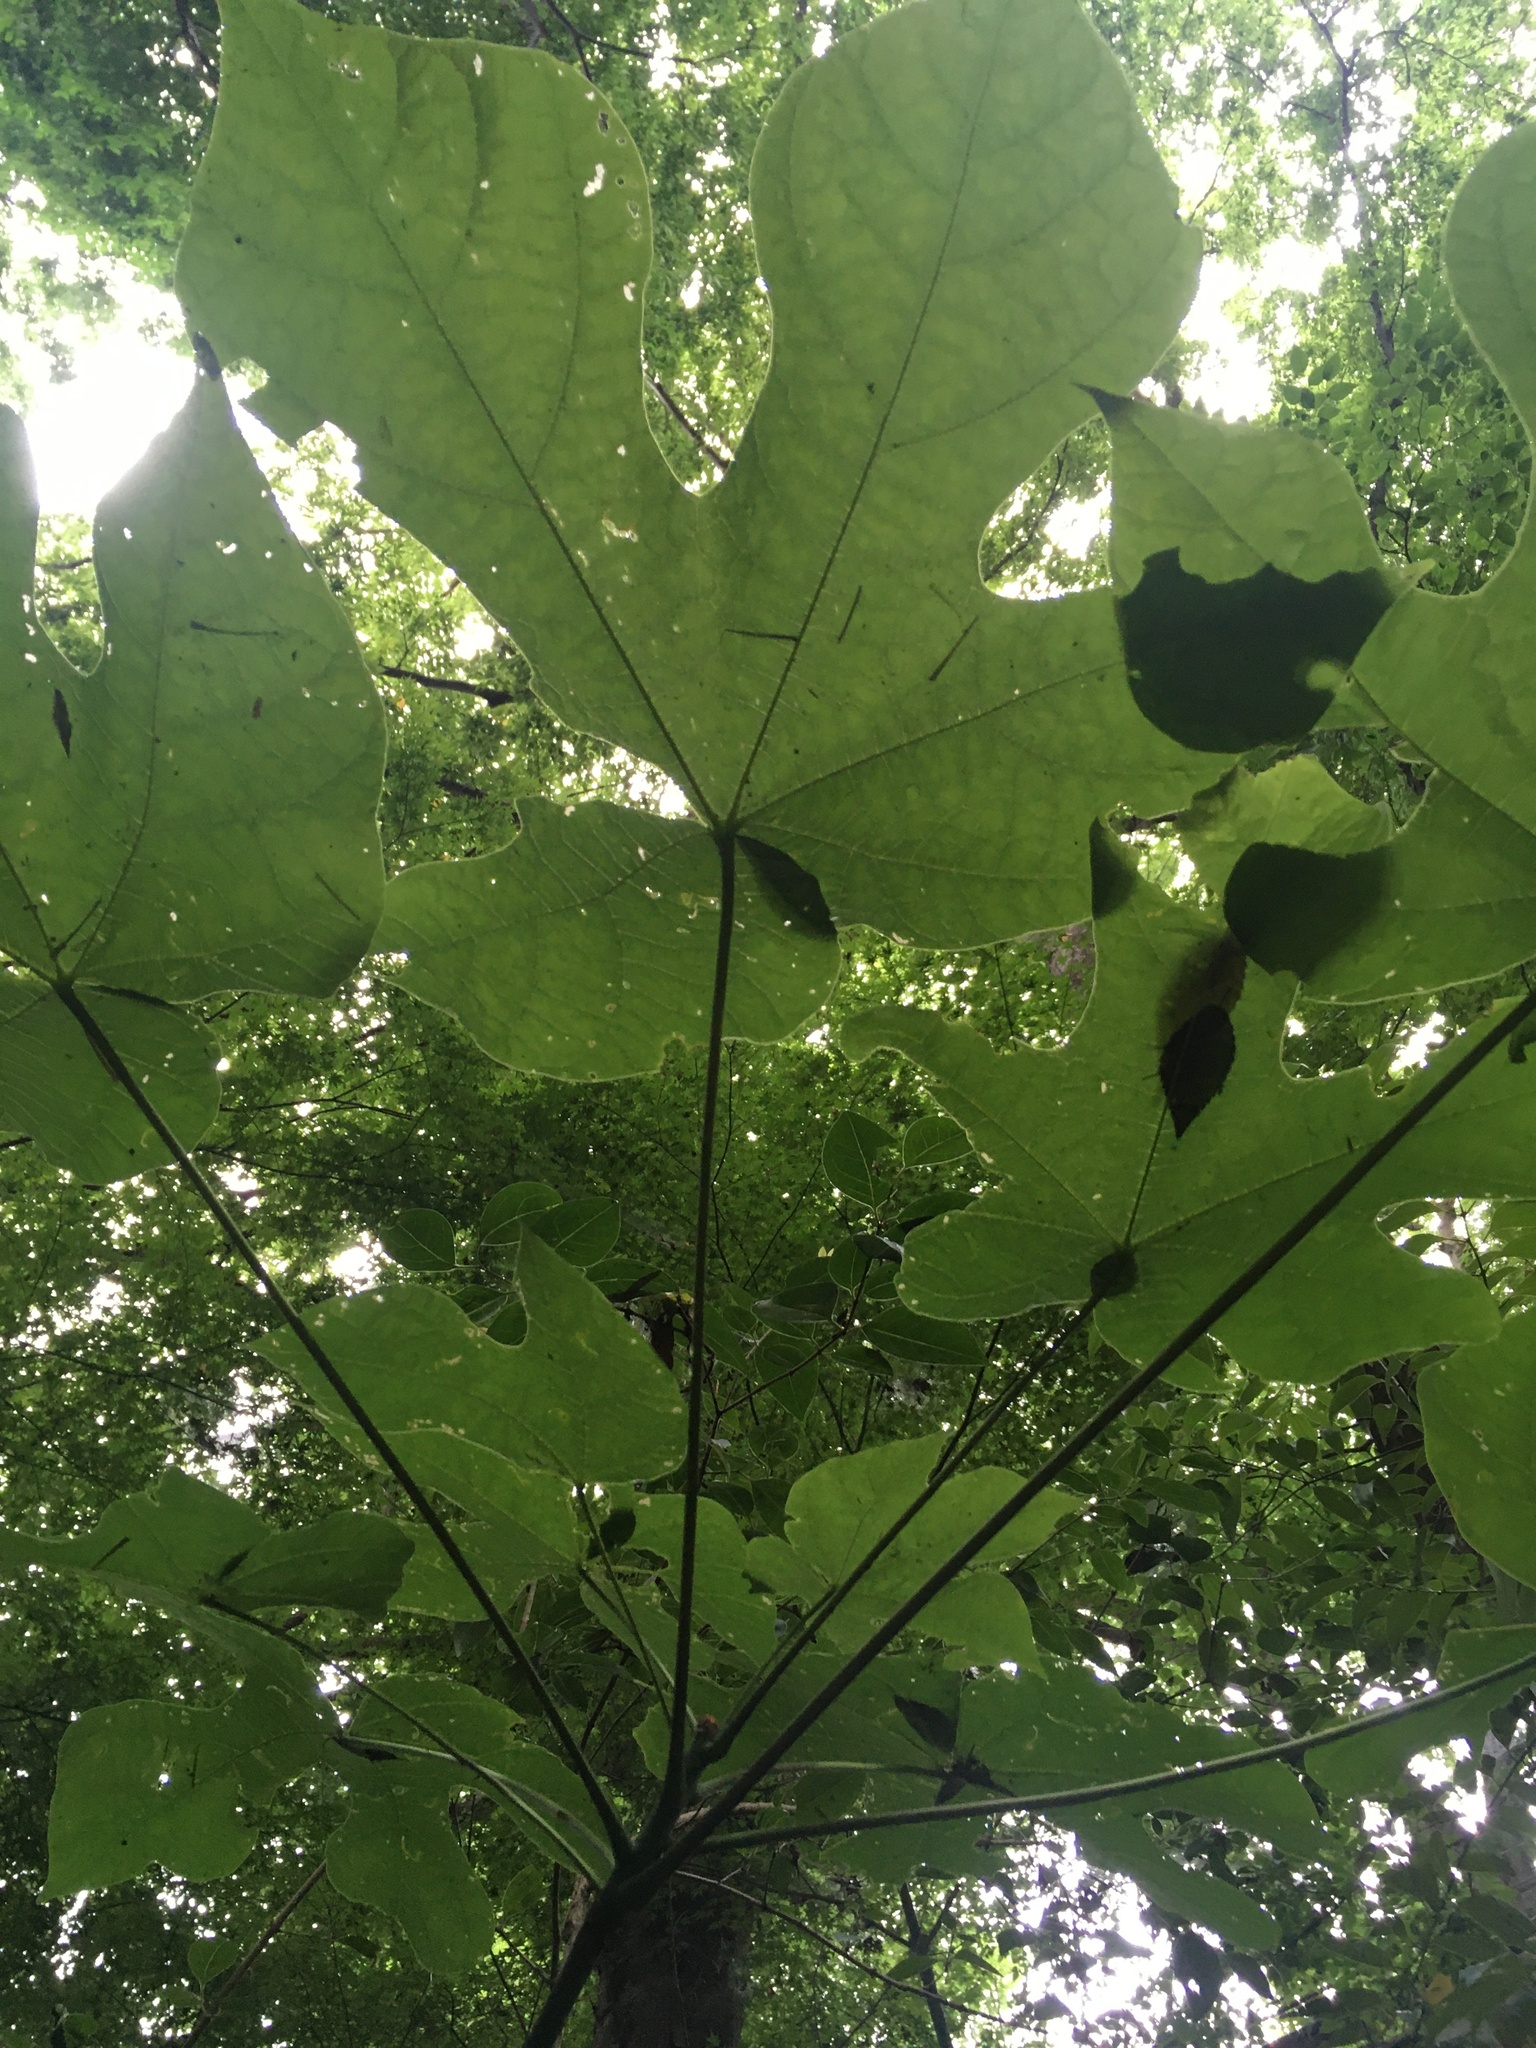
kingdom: Plantae
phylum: Tracheophyta
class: Magnoliopsida
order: Malvales
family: Malvaceae
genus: Firmiana
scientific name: Firmiana simplex
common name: Chinese parasoltree
